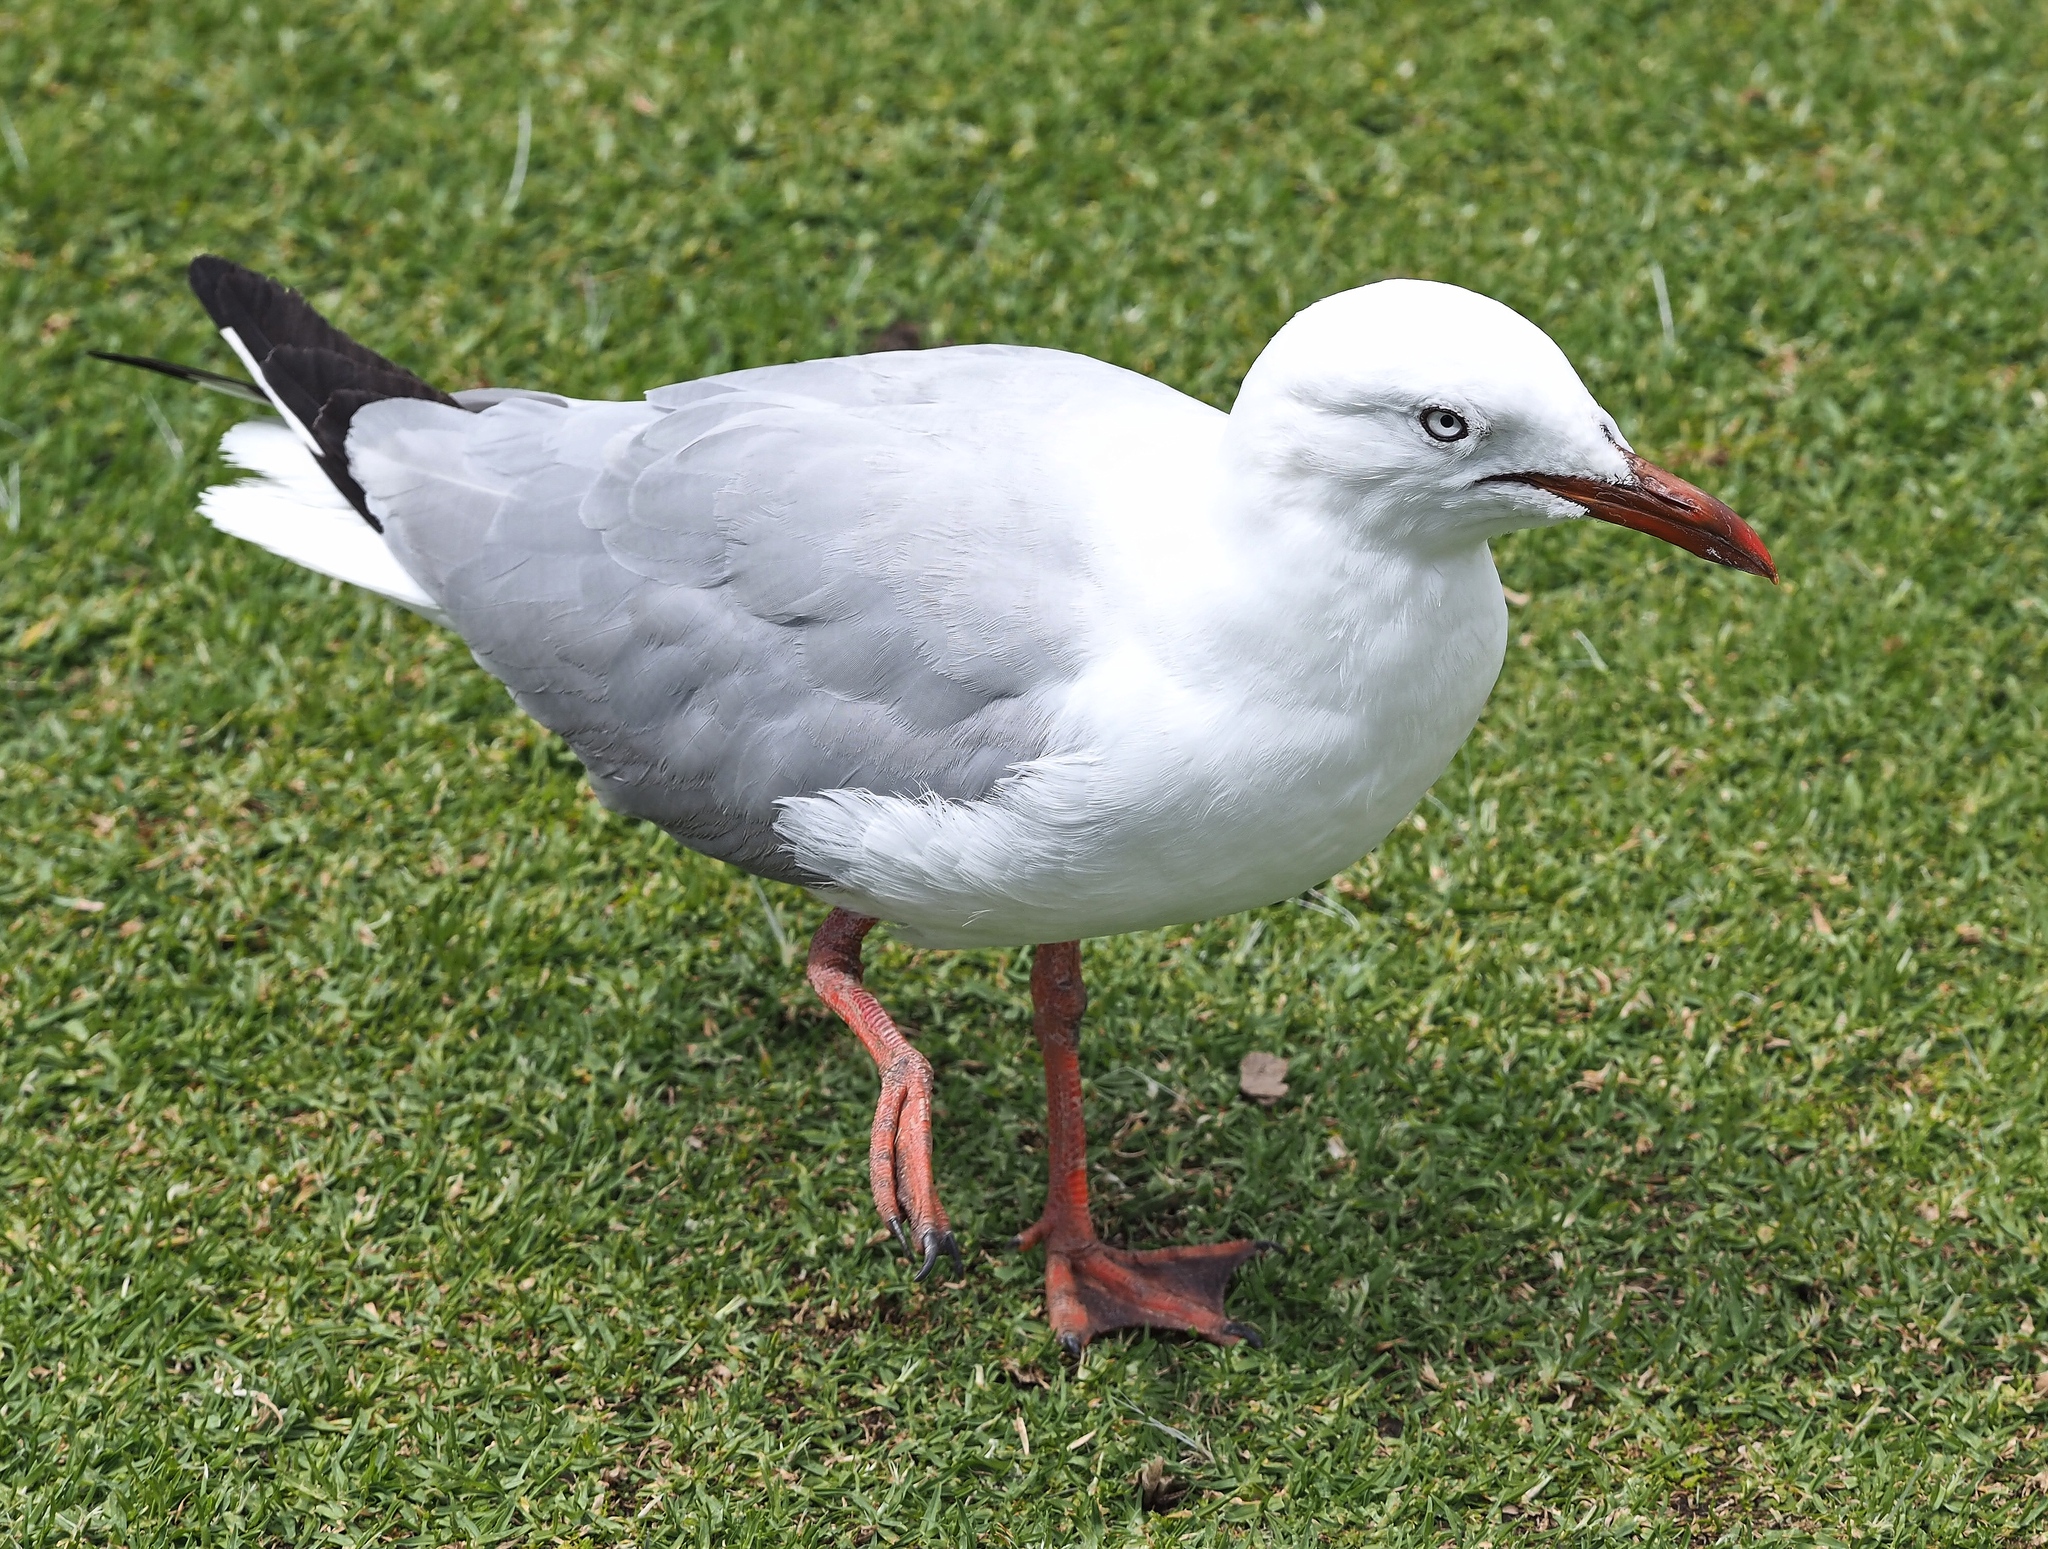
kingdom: Animalia
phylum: Chordata
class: Aves
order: Charadriiformes
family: Laridae
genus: Chroicocephalus
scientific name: Chroicocephalus novaehollandiae
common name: Silver gull
